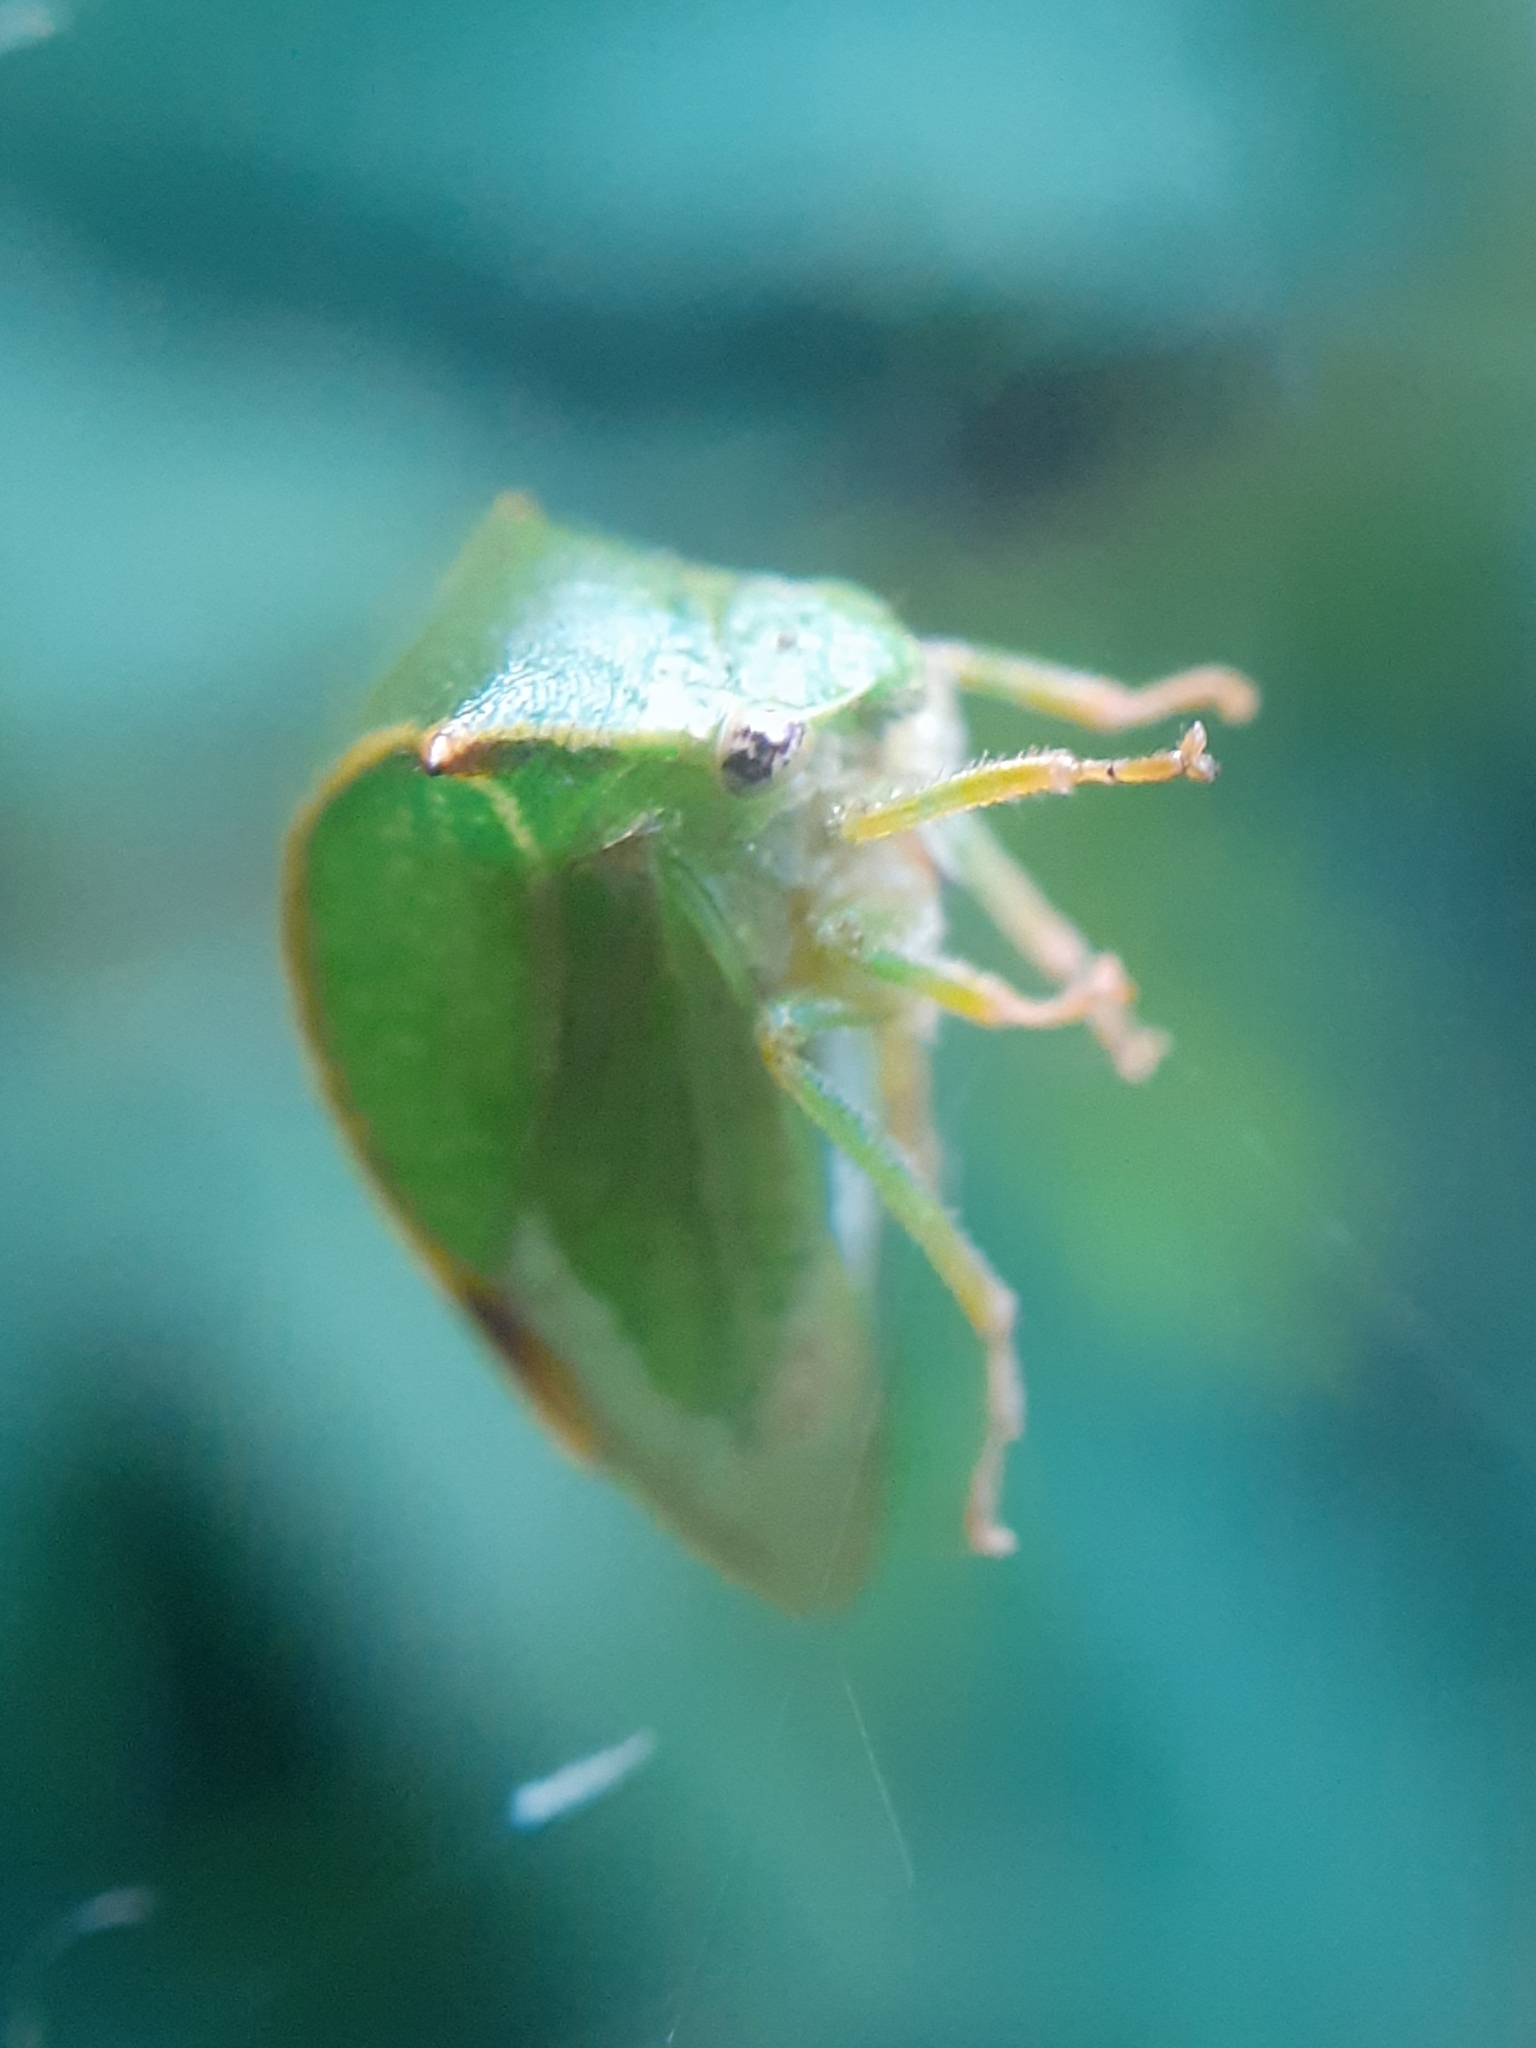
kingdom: Animalia
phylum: Arthropoda
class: Insecta
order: Hemiptera
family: Membracidae
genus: Stictocephala
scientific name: Stictocephala bisonia
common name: American buffalo treehopper
